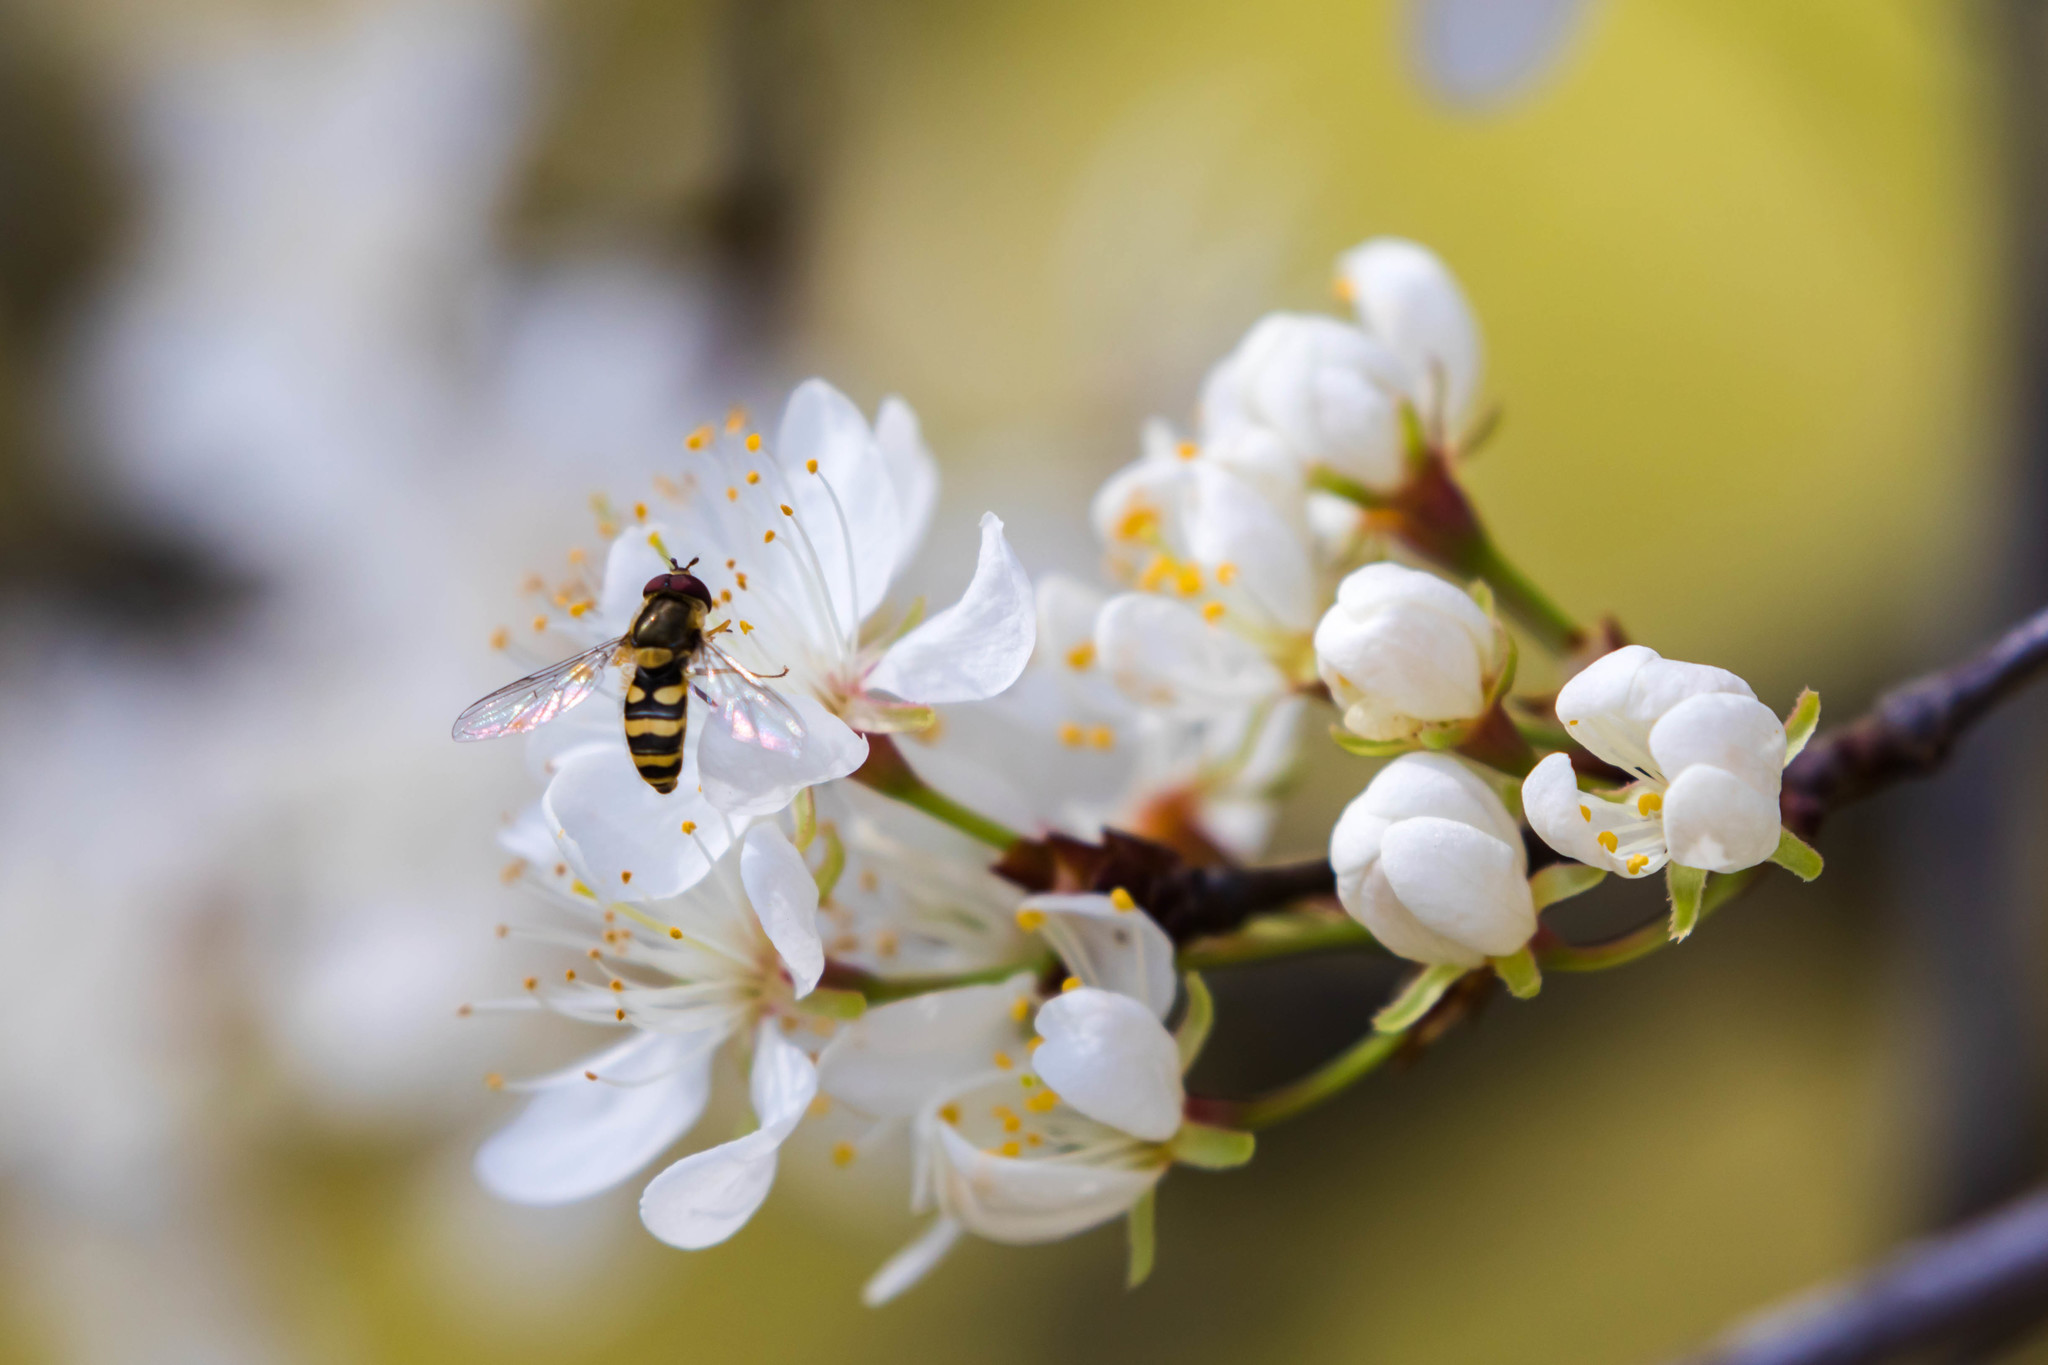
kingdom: Animalia
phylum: Arthropoda
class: Insecta
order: Diptera
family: Syrphidae
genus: Syrphus
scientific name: Syrphus
